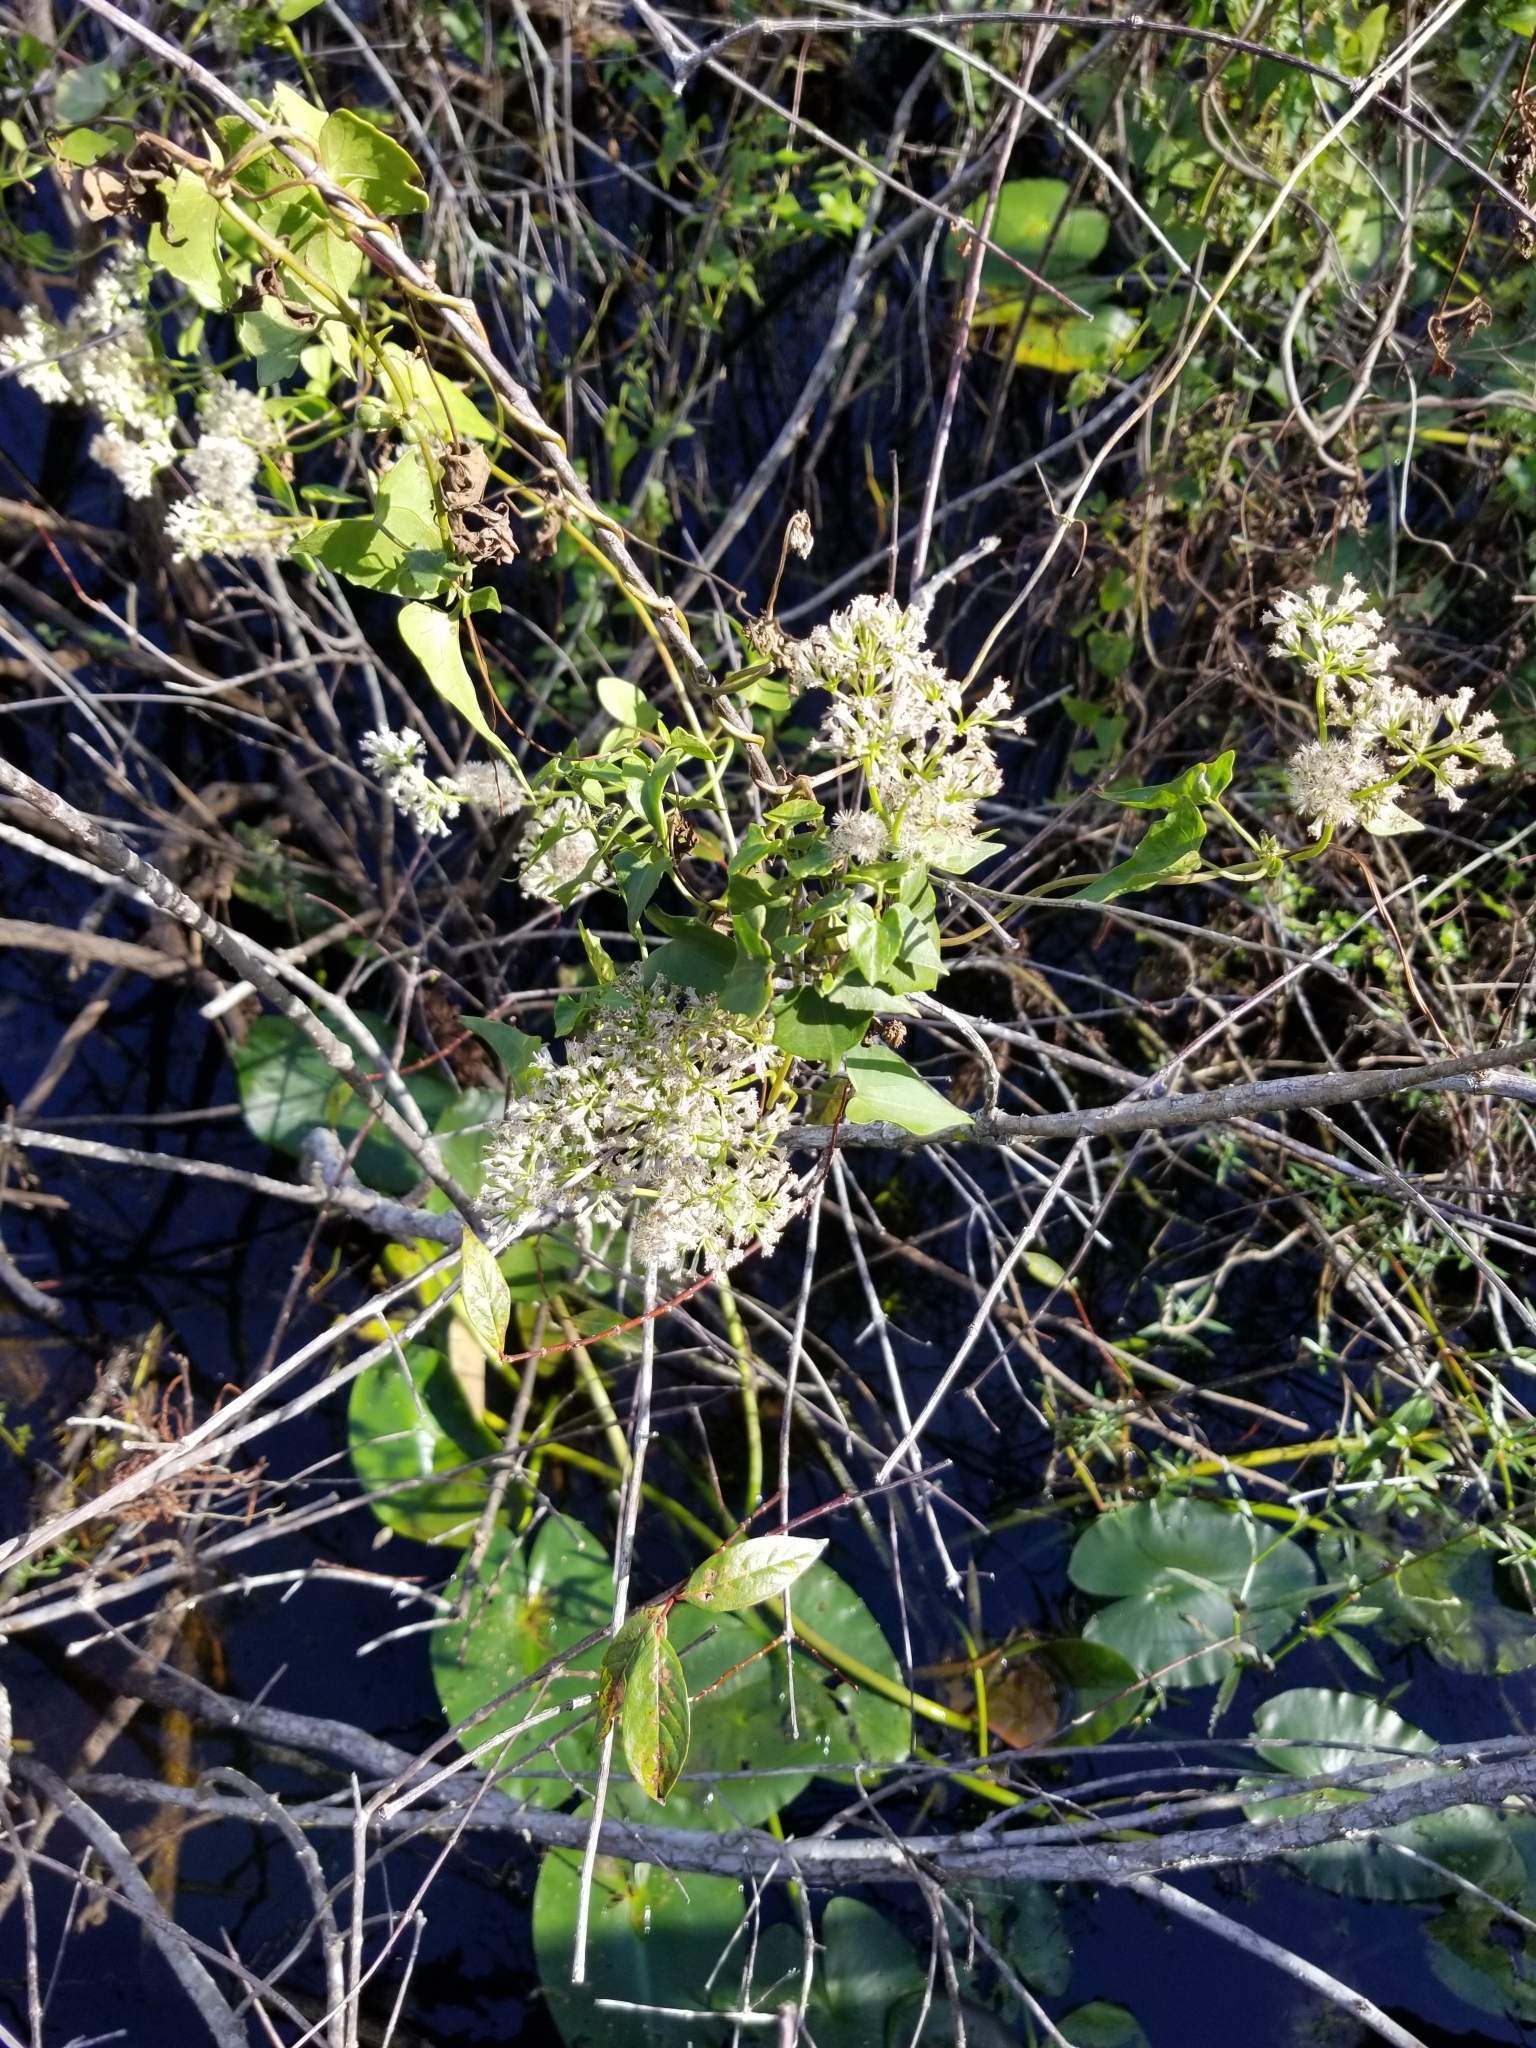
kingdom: Plantae
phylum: Tracheophyta
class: Magnoliopsida
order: Asterales
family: Asteraceae
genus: Mikania
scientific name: Mikania scandens
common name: Climbing hempvine
